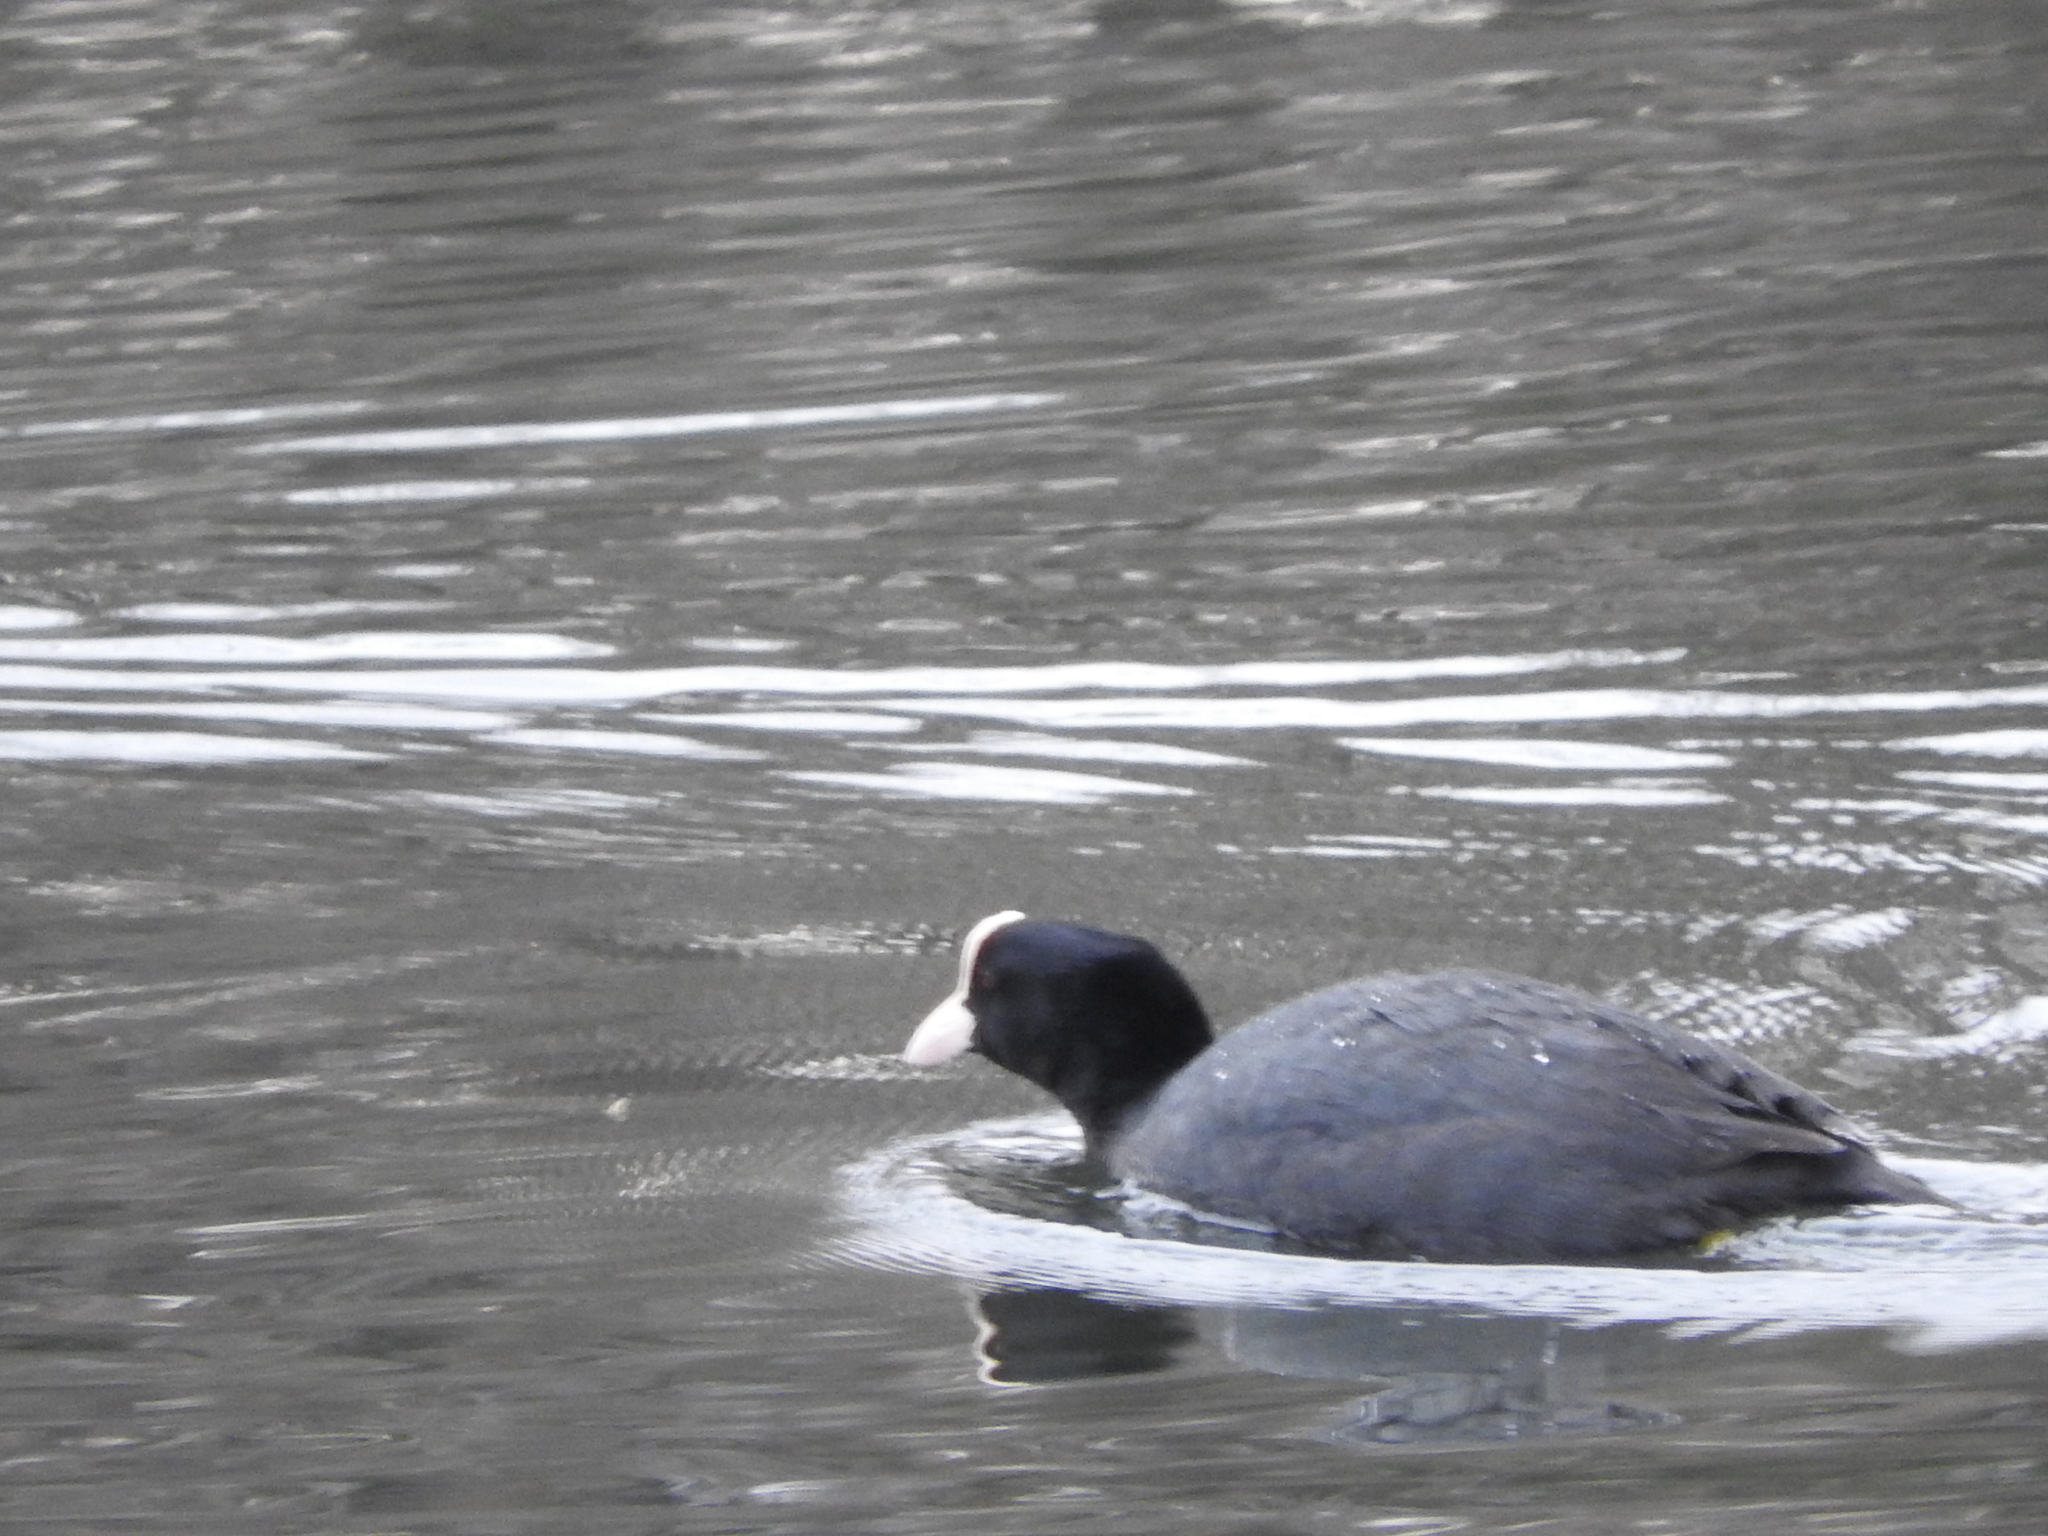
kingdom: Animalia
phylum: Chordata
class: Aves
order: Gruiformes
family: Rallidae
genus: Fulica
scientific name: Fulica atra
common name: Eurasian coot
